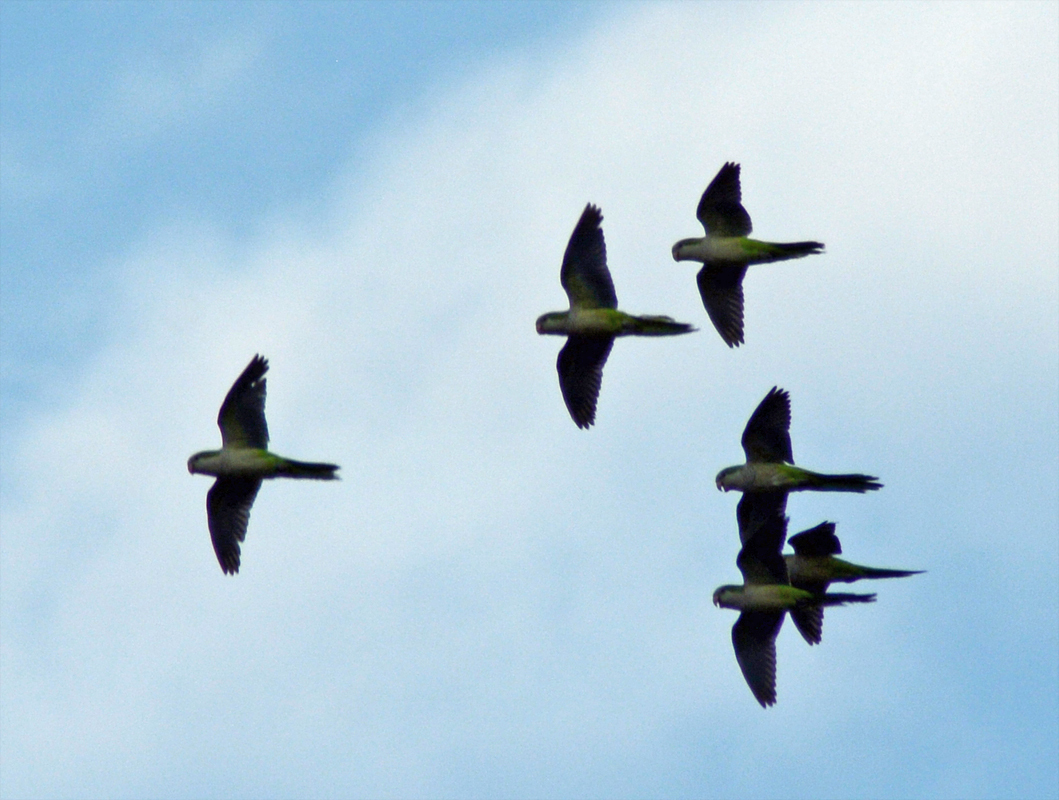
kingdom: Animalia
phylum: Chordata
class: Aves
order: Psittaciformes
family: Psittacidae
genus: Myiopsitta
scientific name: Myiopsitta monachus
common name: Monk parakeet
